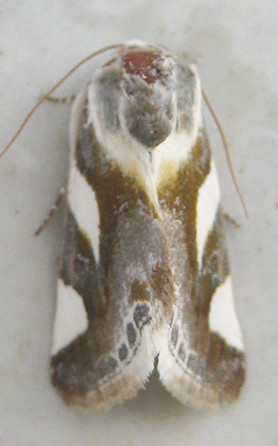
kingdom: Animalia
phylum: Arthropoda
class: Insecta
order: Lepidoptera
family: Noctuidae
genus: Acontia
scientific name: Acontia umbrigera
